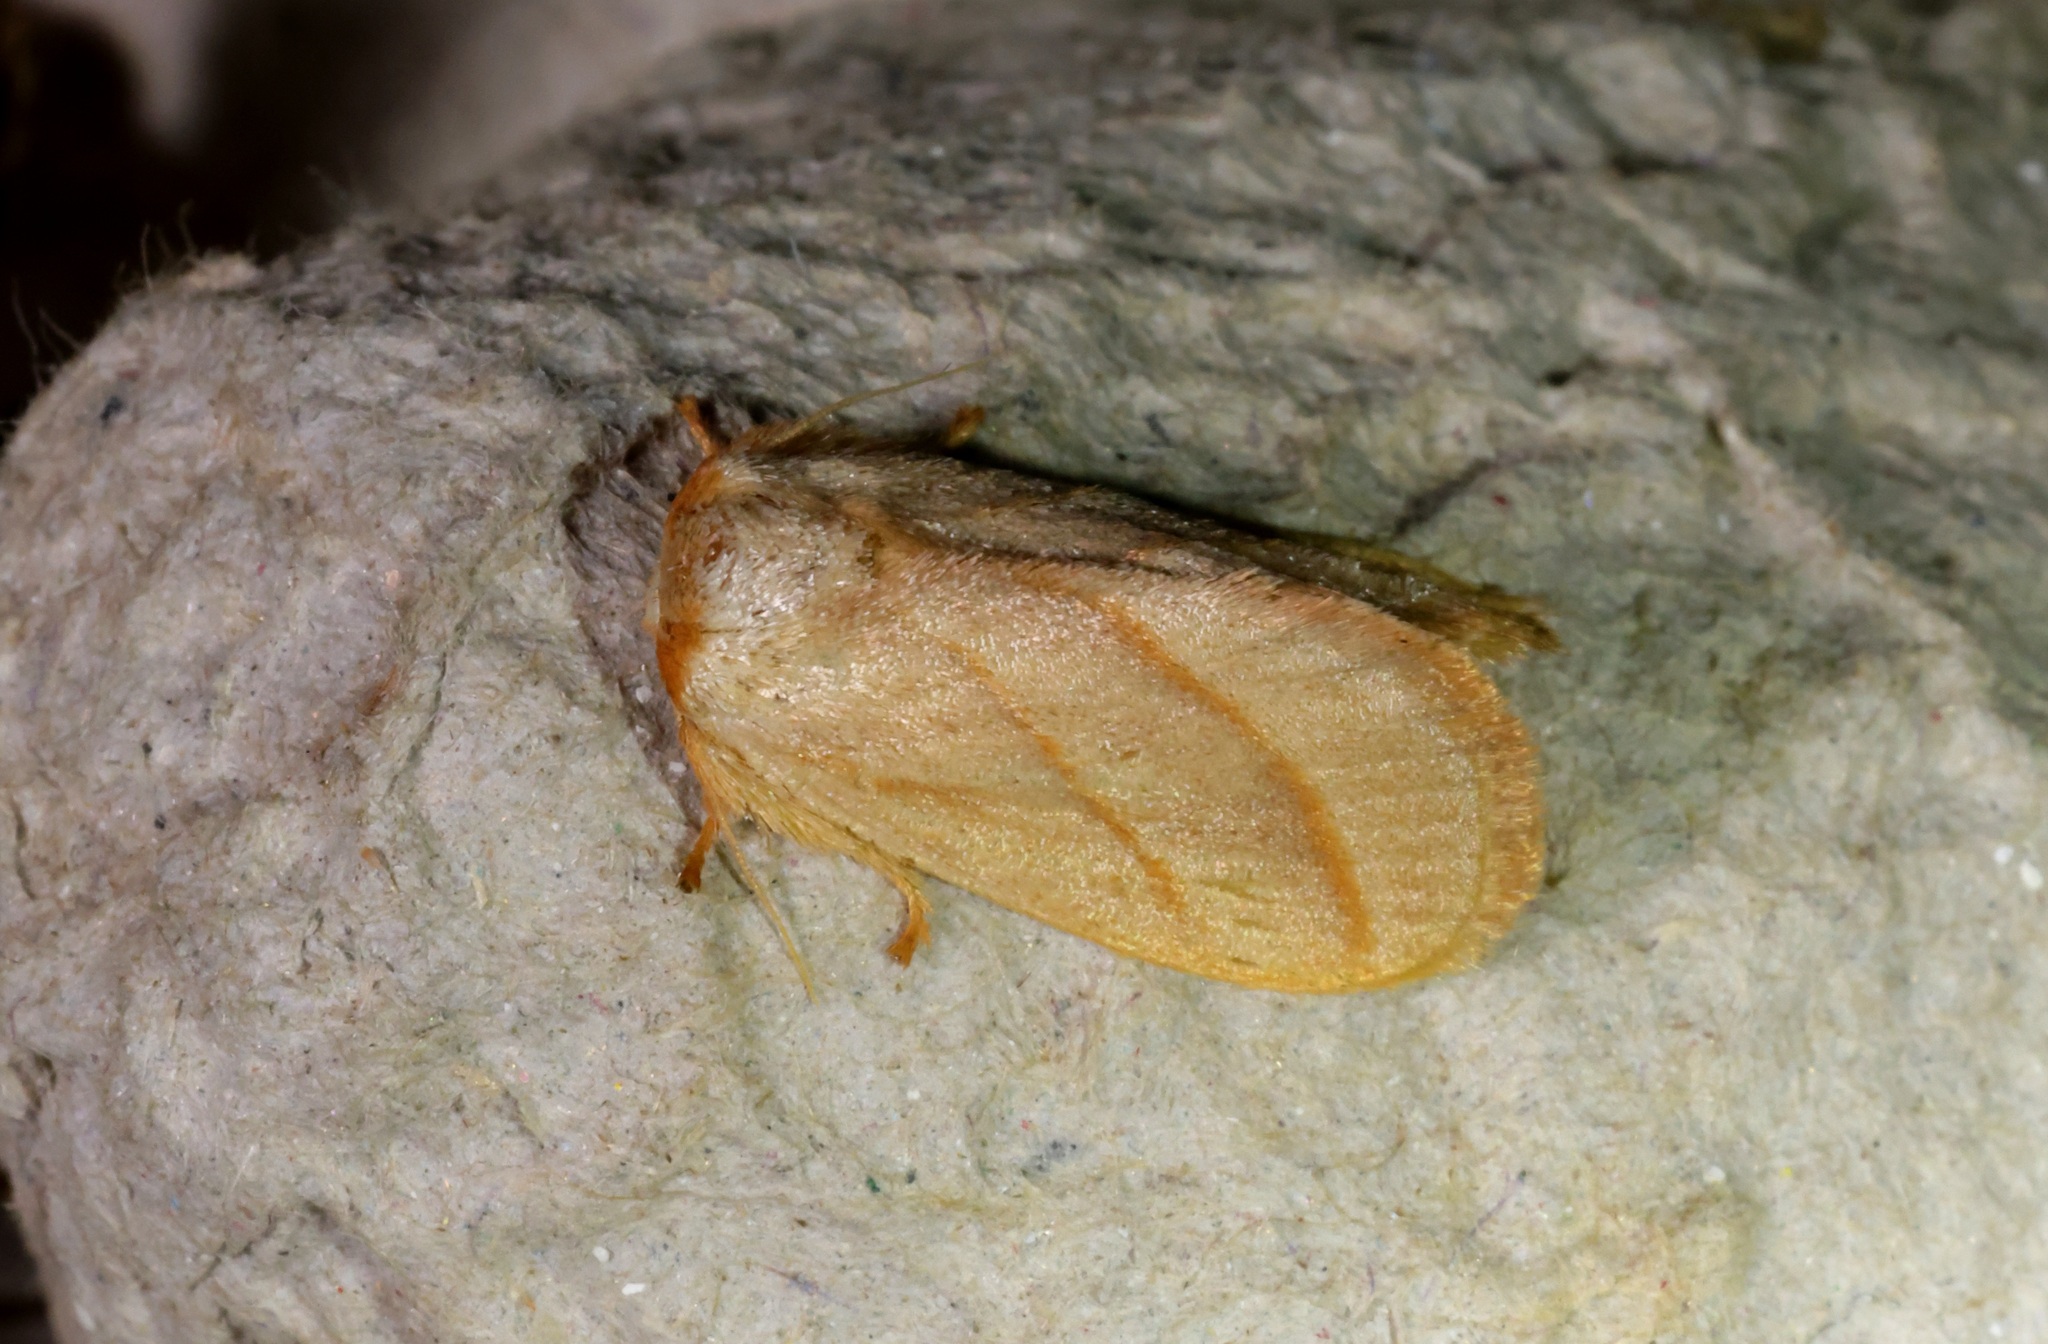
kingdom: Animalia
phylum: Arthropoda
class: Insecta
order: Lepidoptera
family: Limacodidae
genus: Cania
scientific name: Cania bilinea
